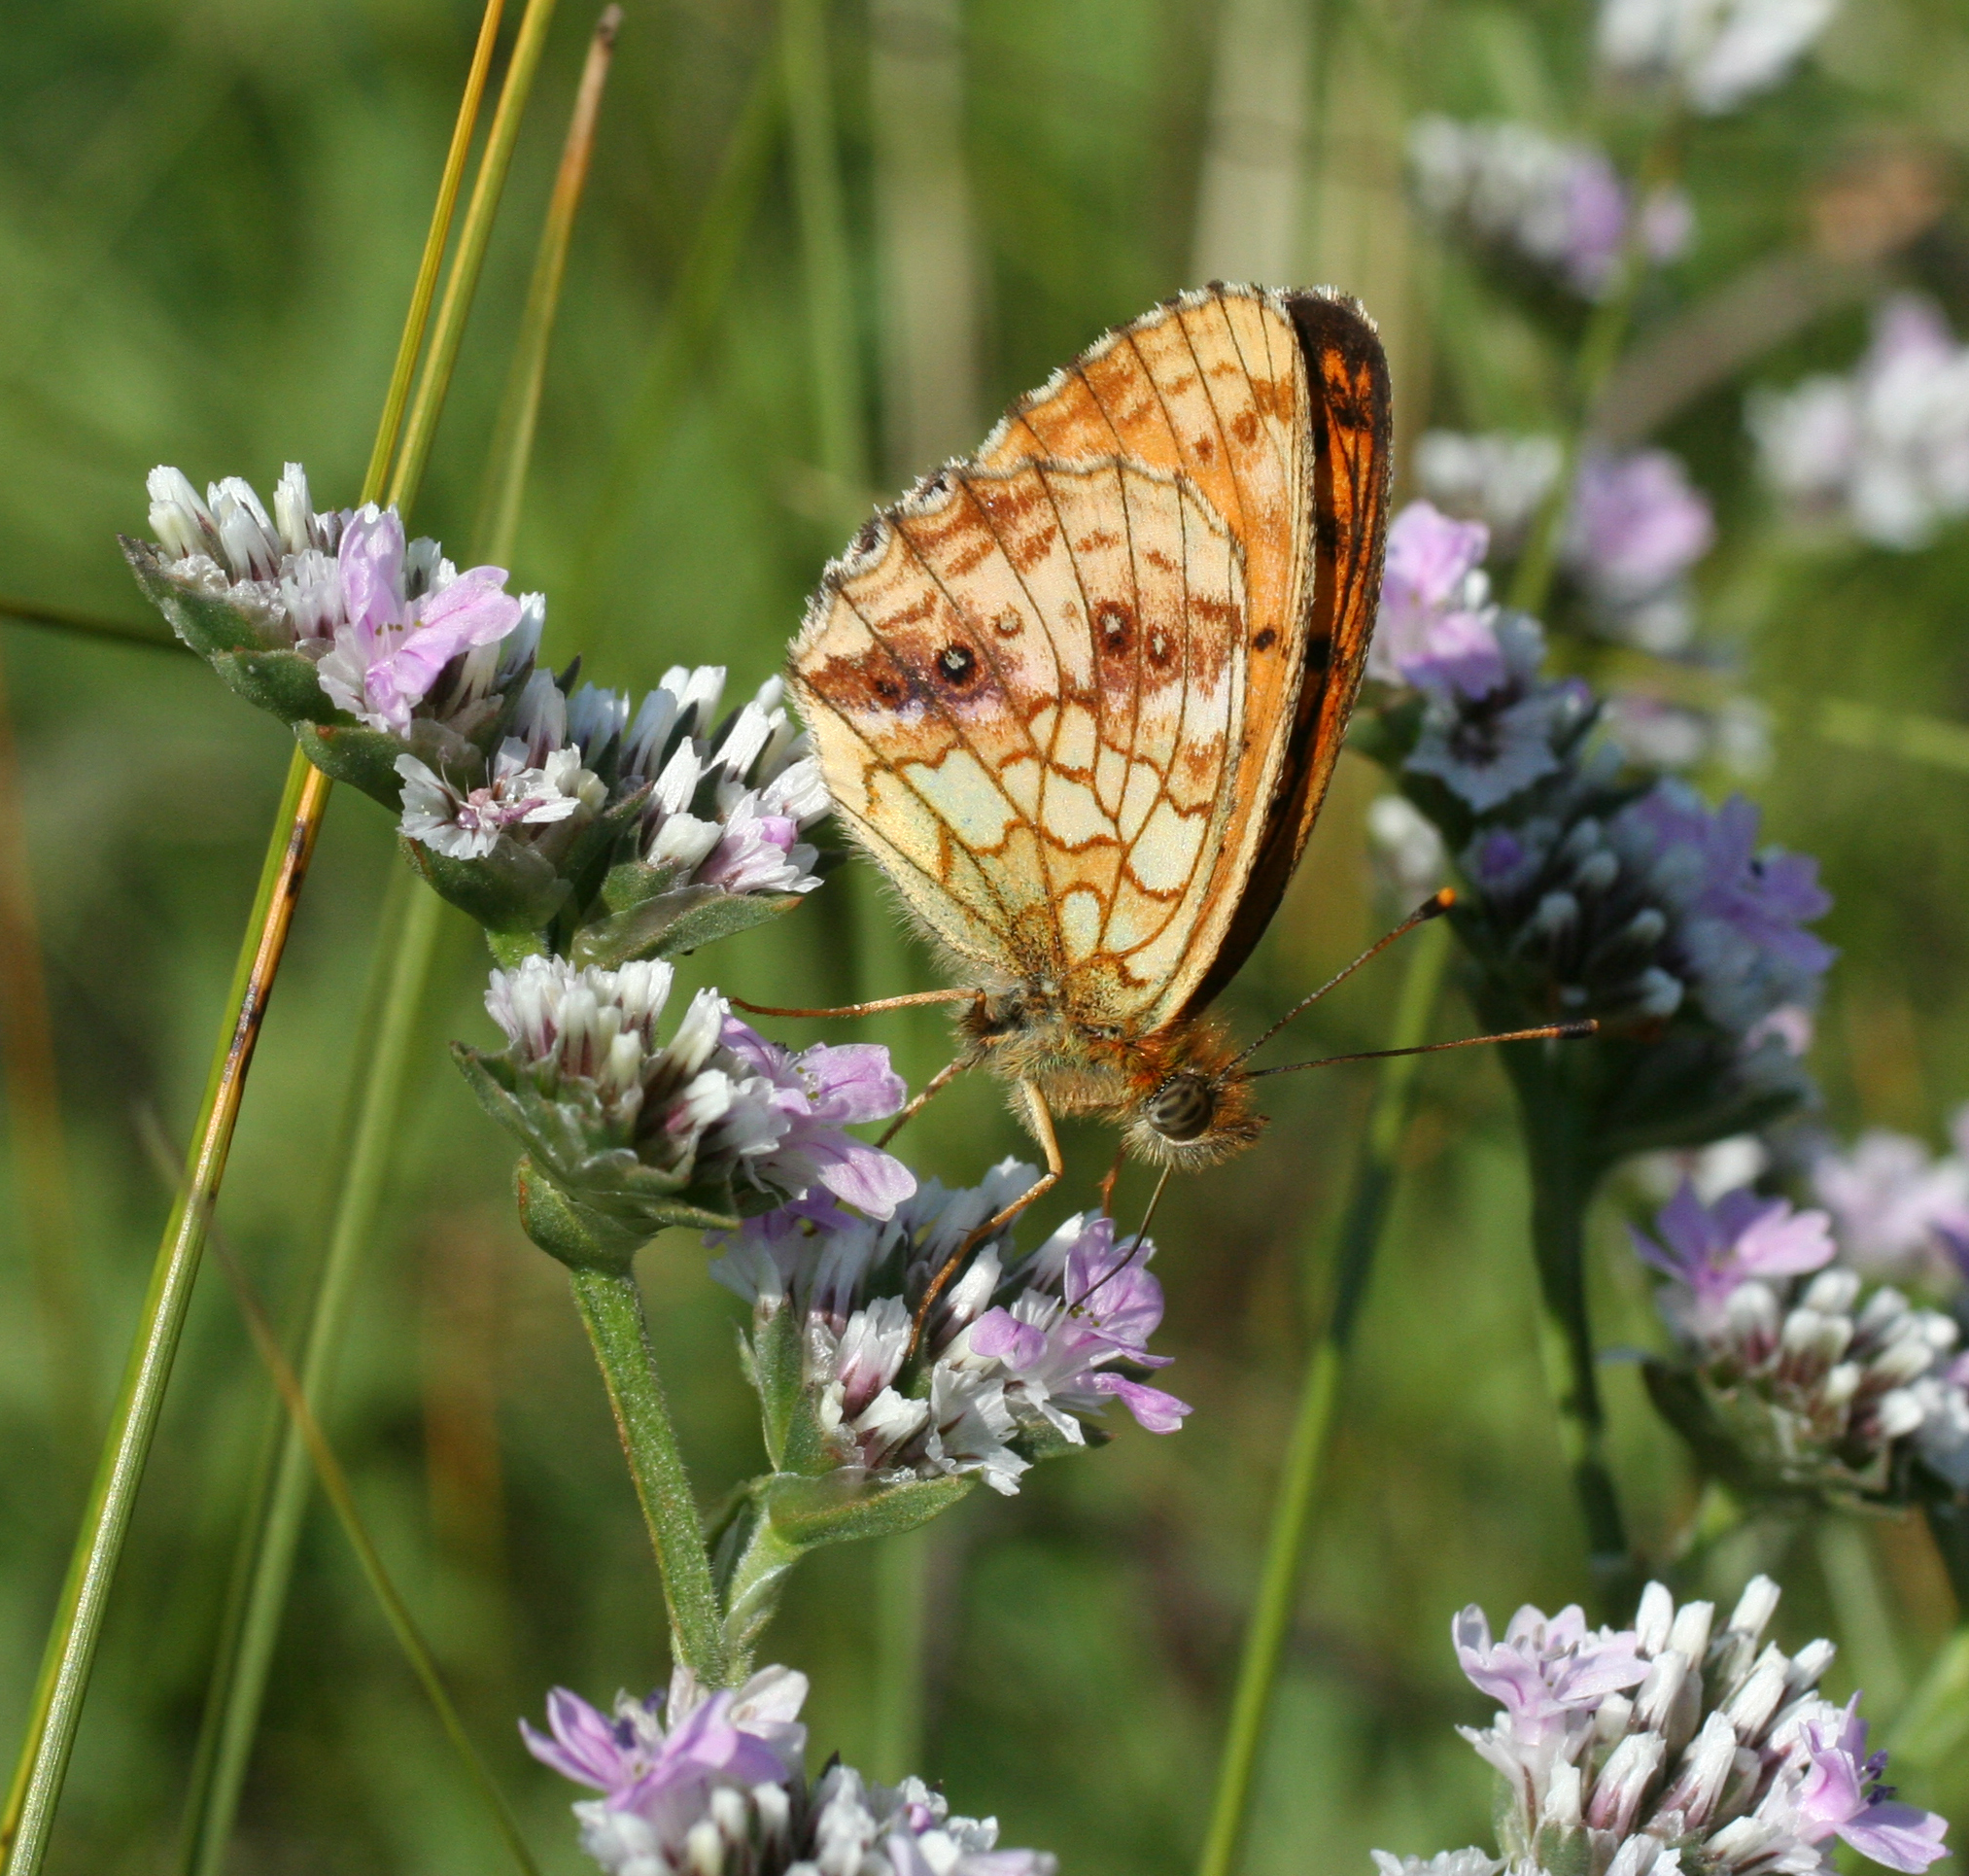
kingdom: Animalia
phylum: Arthropoda
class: Insecta
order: Lepidoptera
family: Nymphalidae
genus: Brenthis
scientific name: Brenthis ino
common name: Lesser marbled fritillary
